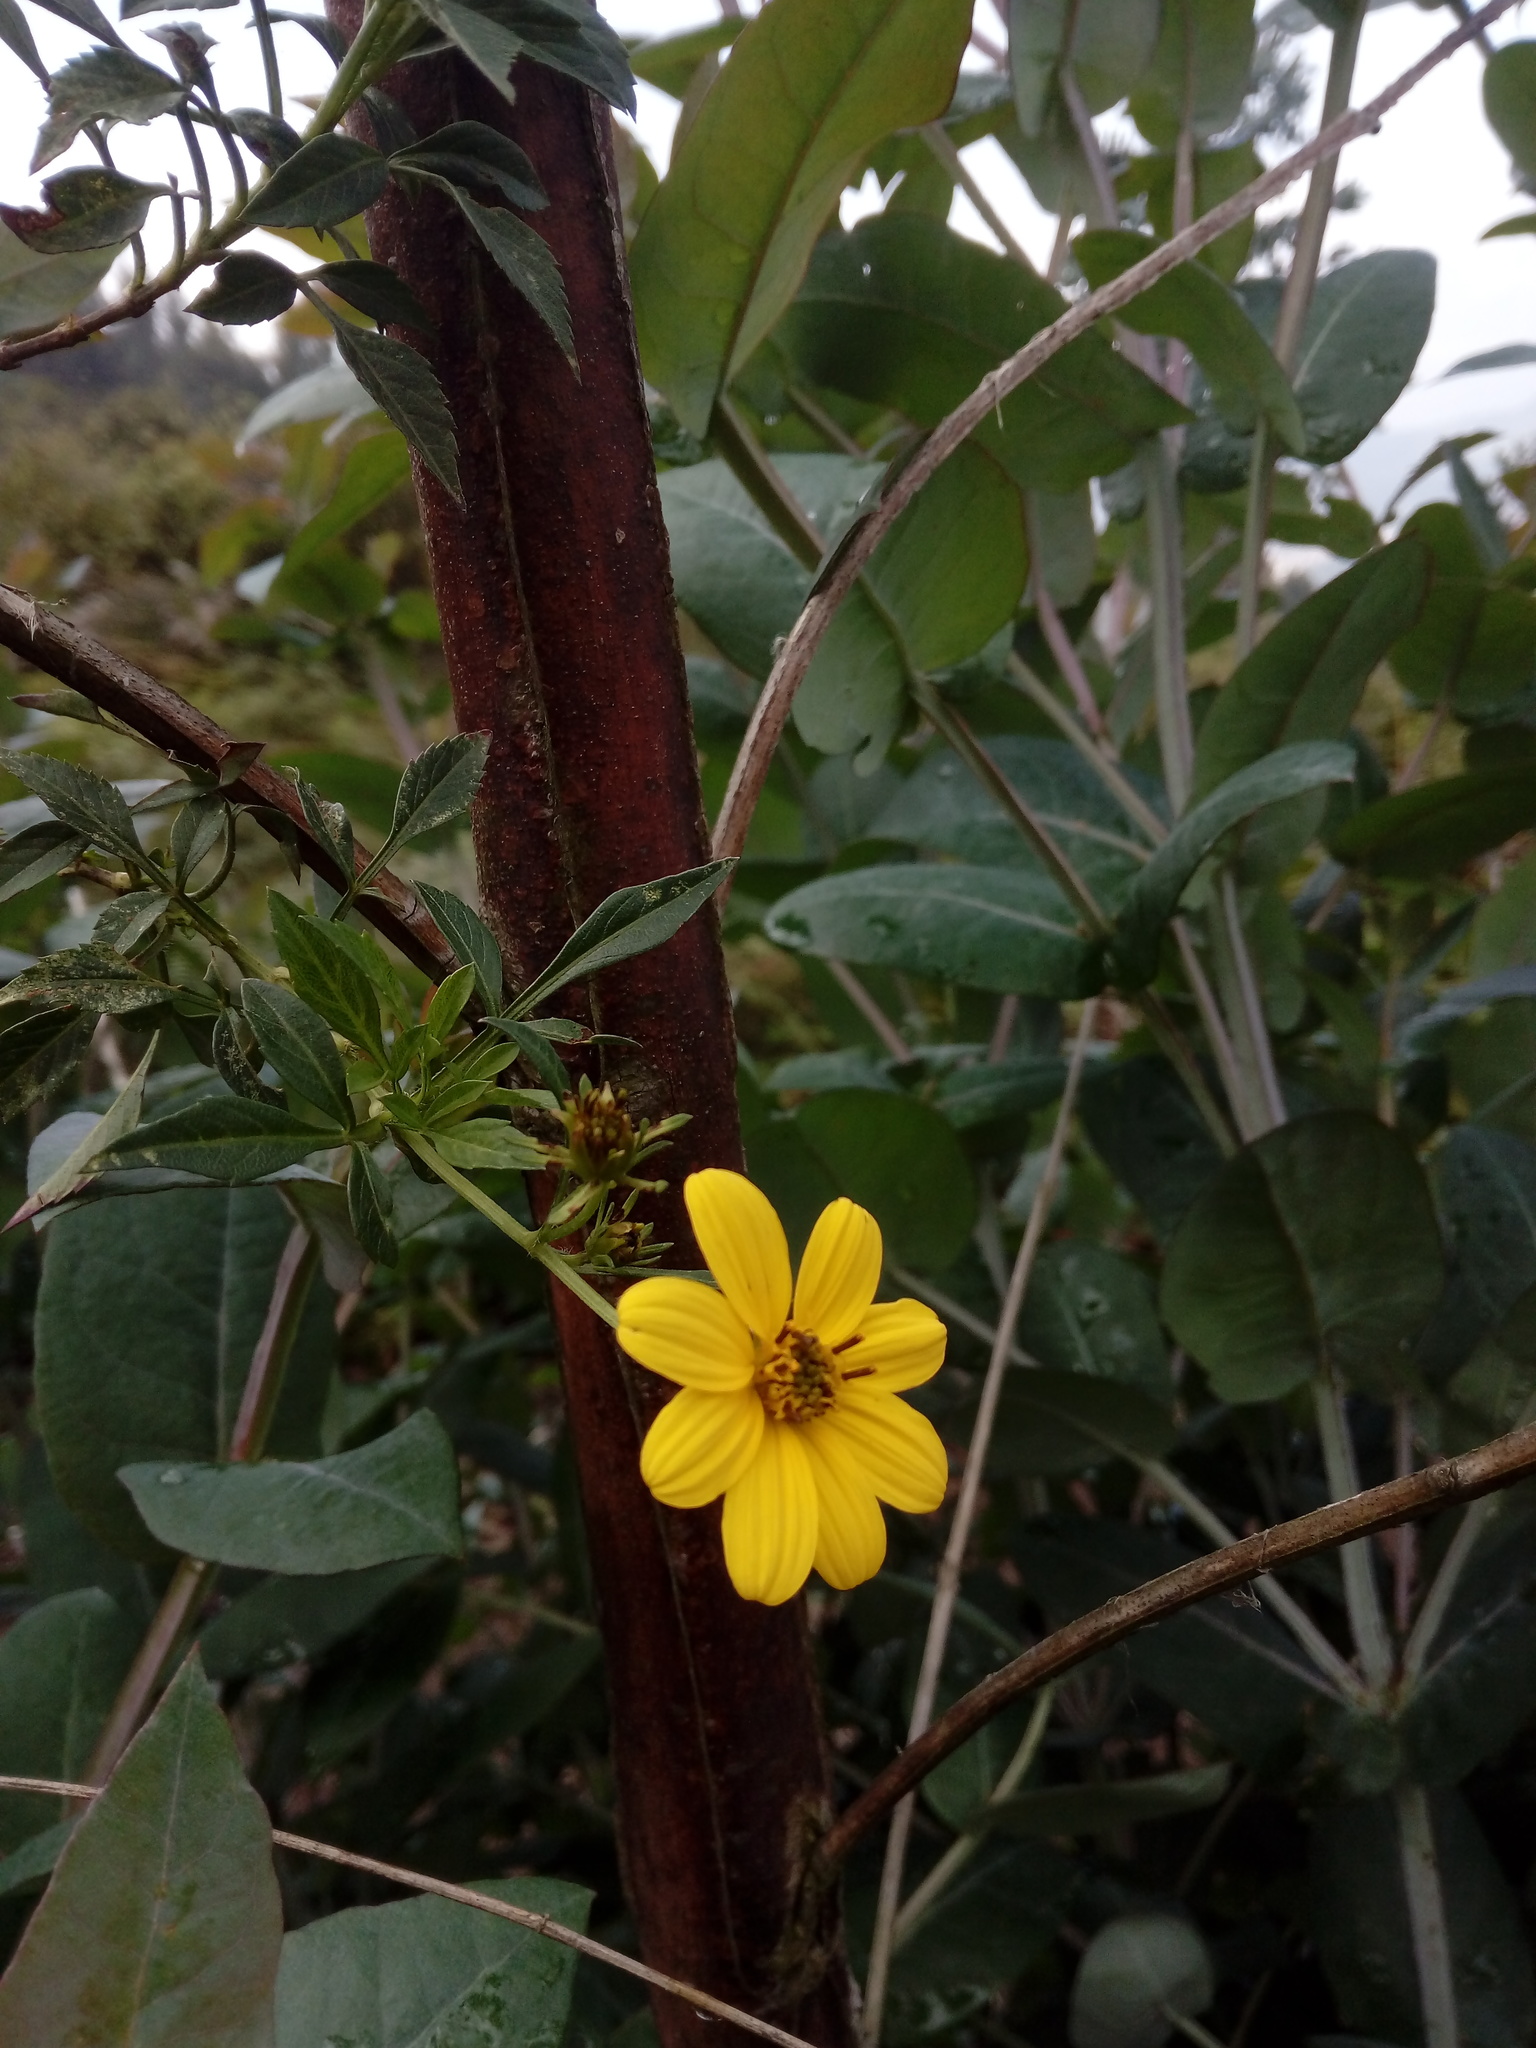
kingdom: Plantae
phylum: Tracheophyta
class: Magnoliopsida
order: Asterales
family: Asteraceae
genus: Bidens
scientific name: Bidens rubifolia
